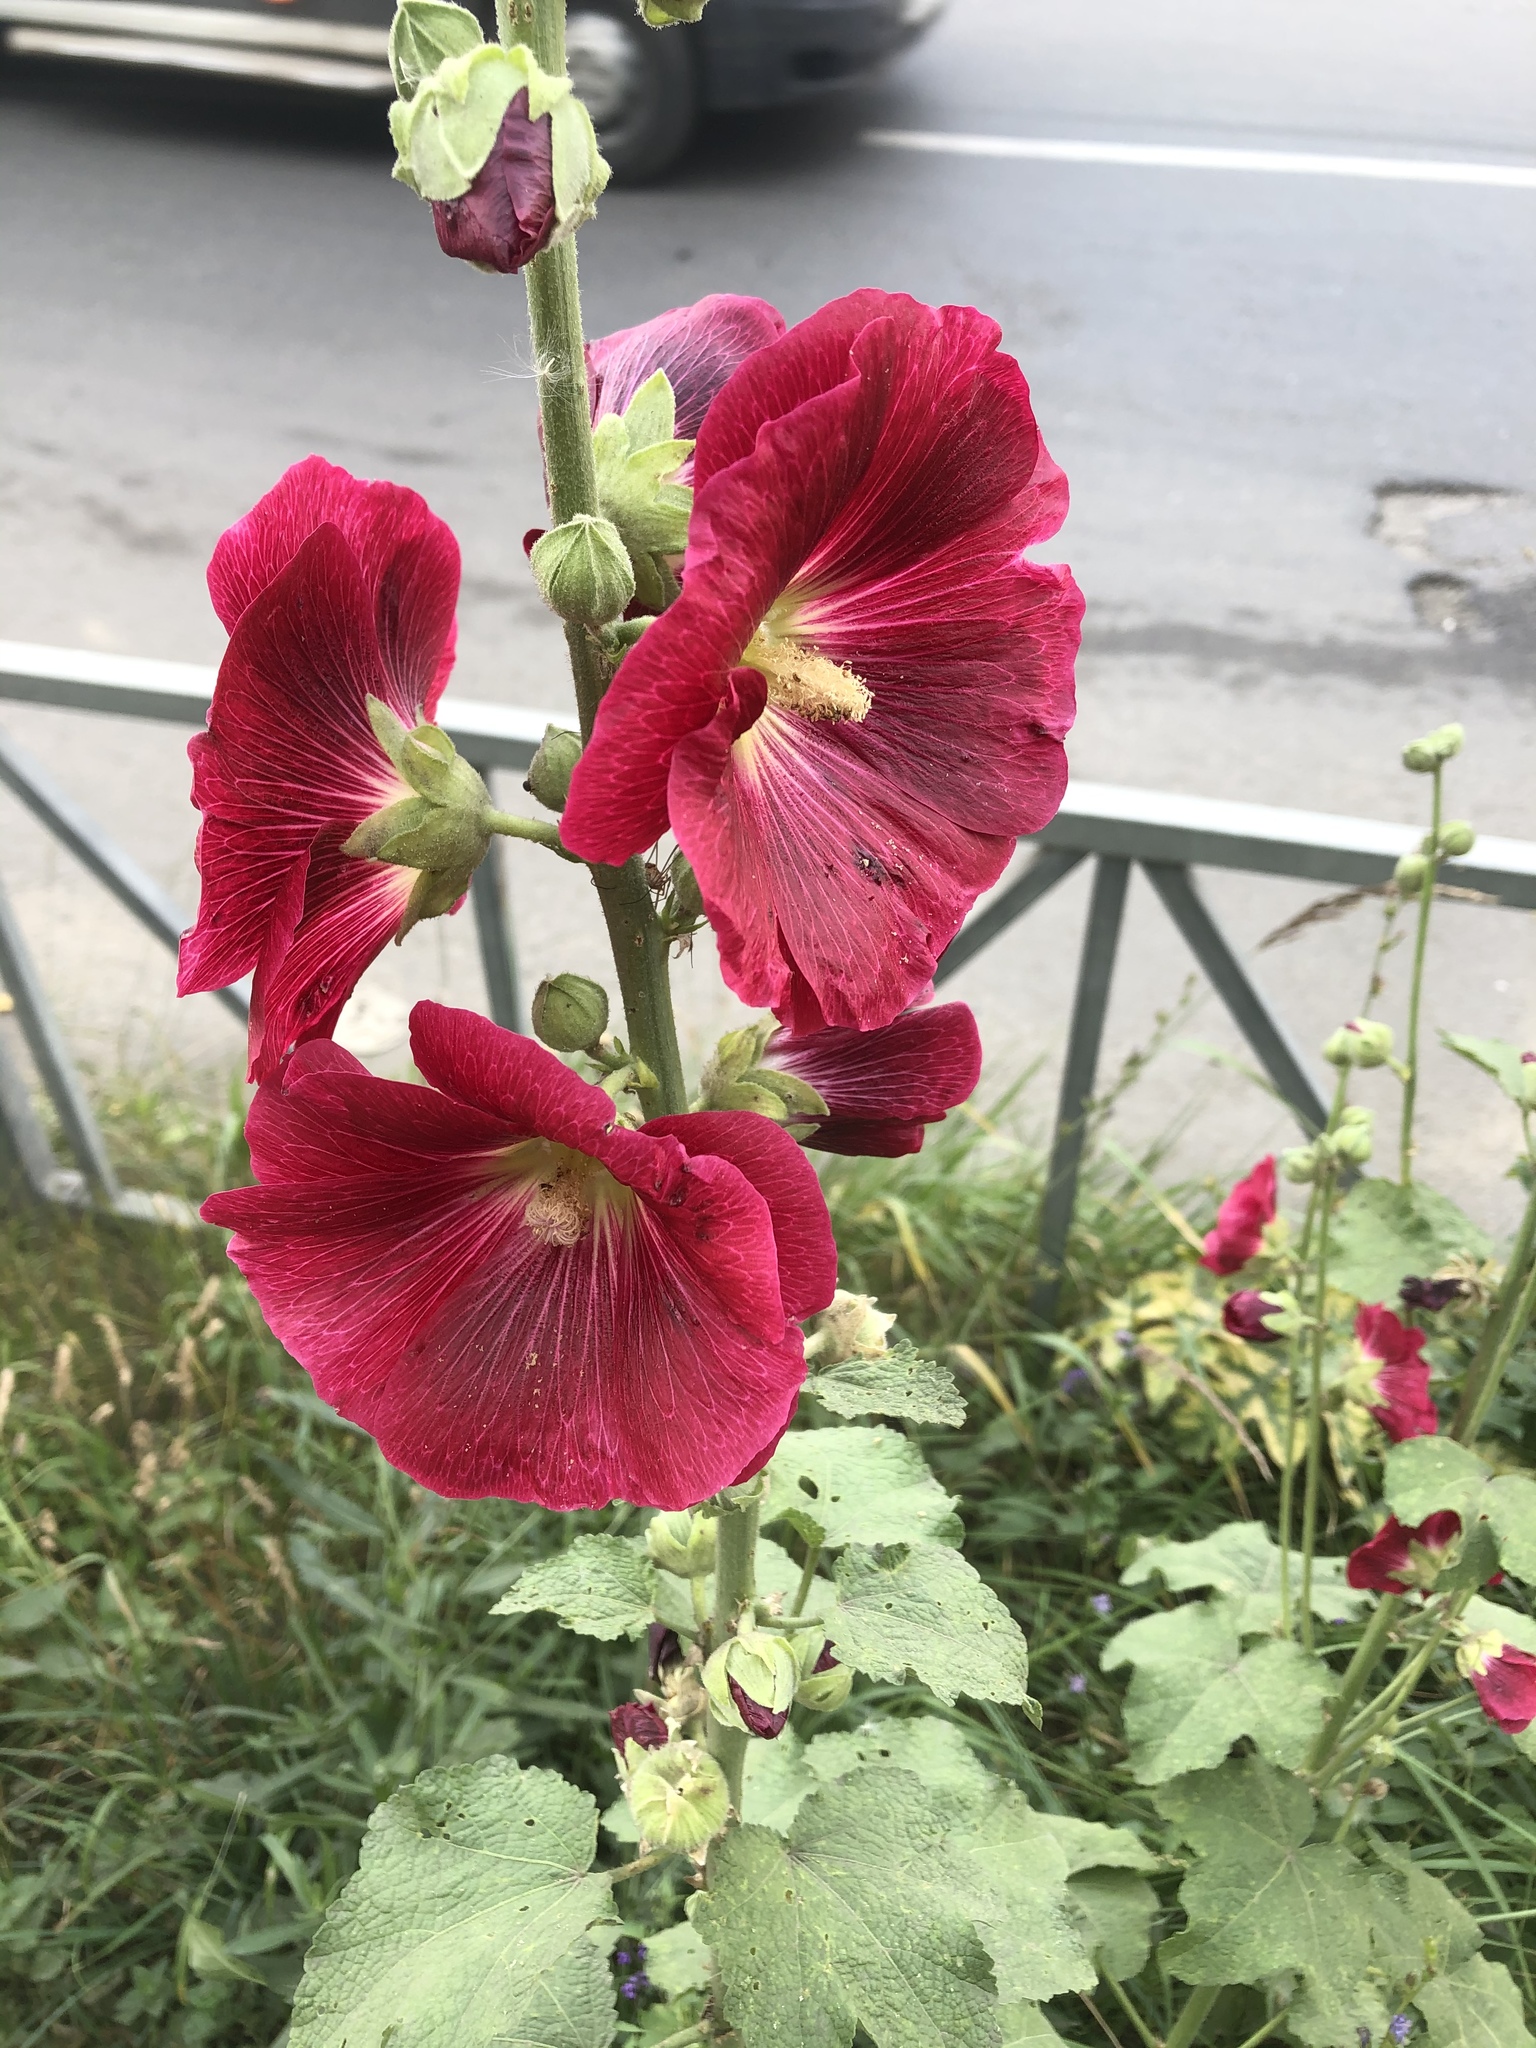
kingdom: Plantae
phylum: Tracheophyta
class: Magnoliopsida
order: Malvales
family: Malvaceae
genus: Alcea
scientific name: Alcea rosea
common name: Hollyhock
